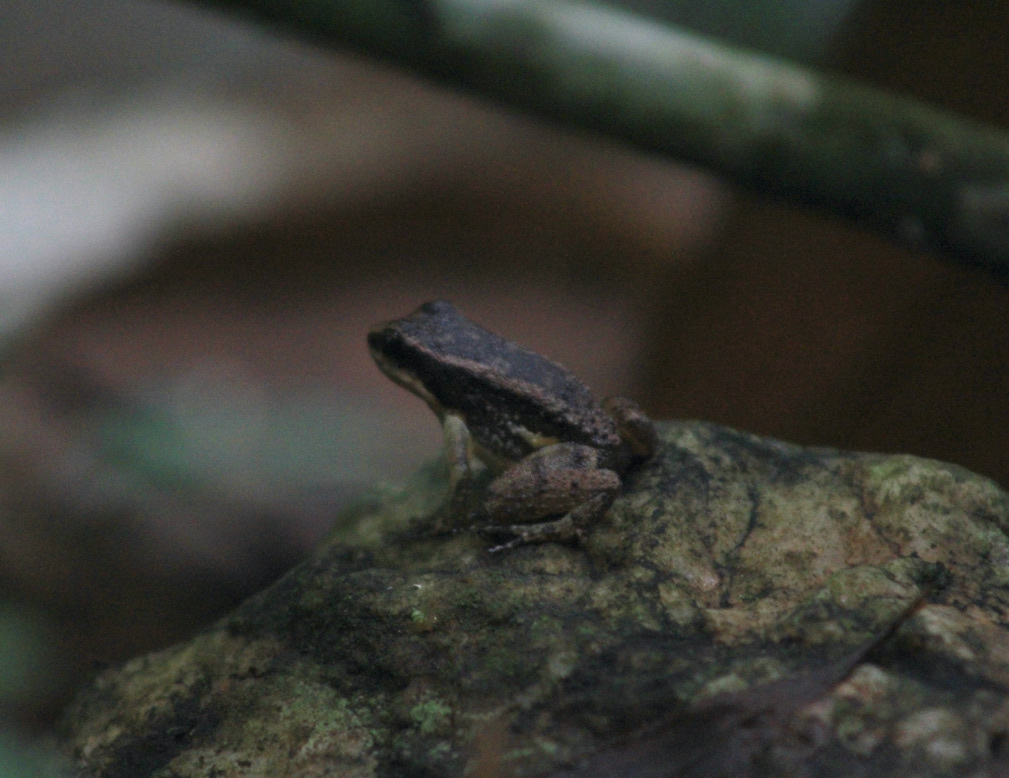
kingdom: Animalia
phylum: Chordata
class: Amphibia
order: Anura
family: Aromobatidae
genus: Mannophryne
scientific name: Mannophryne trinitatis
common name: Trinidad poison frog
